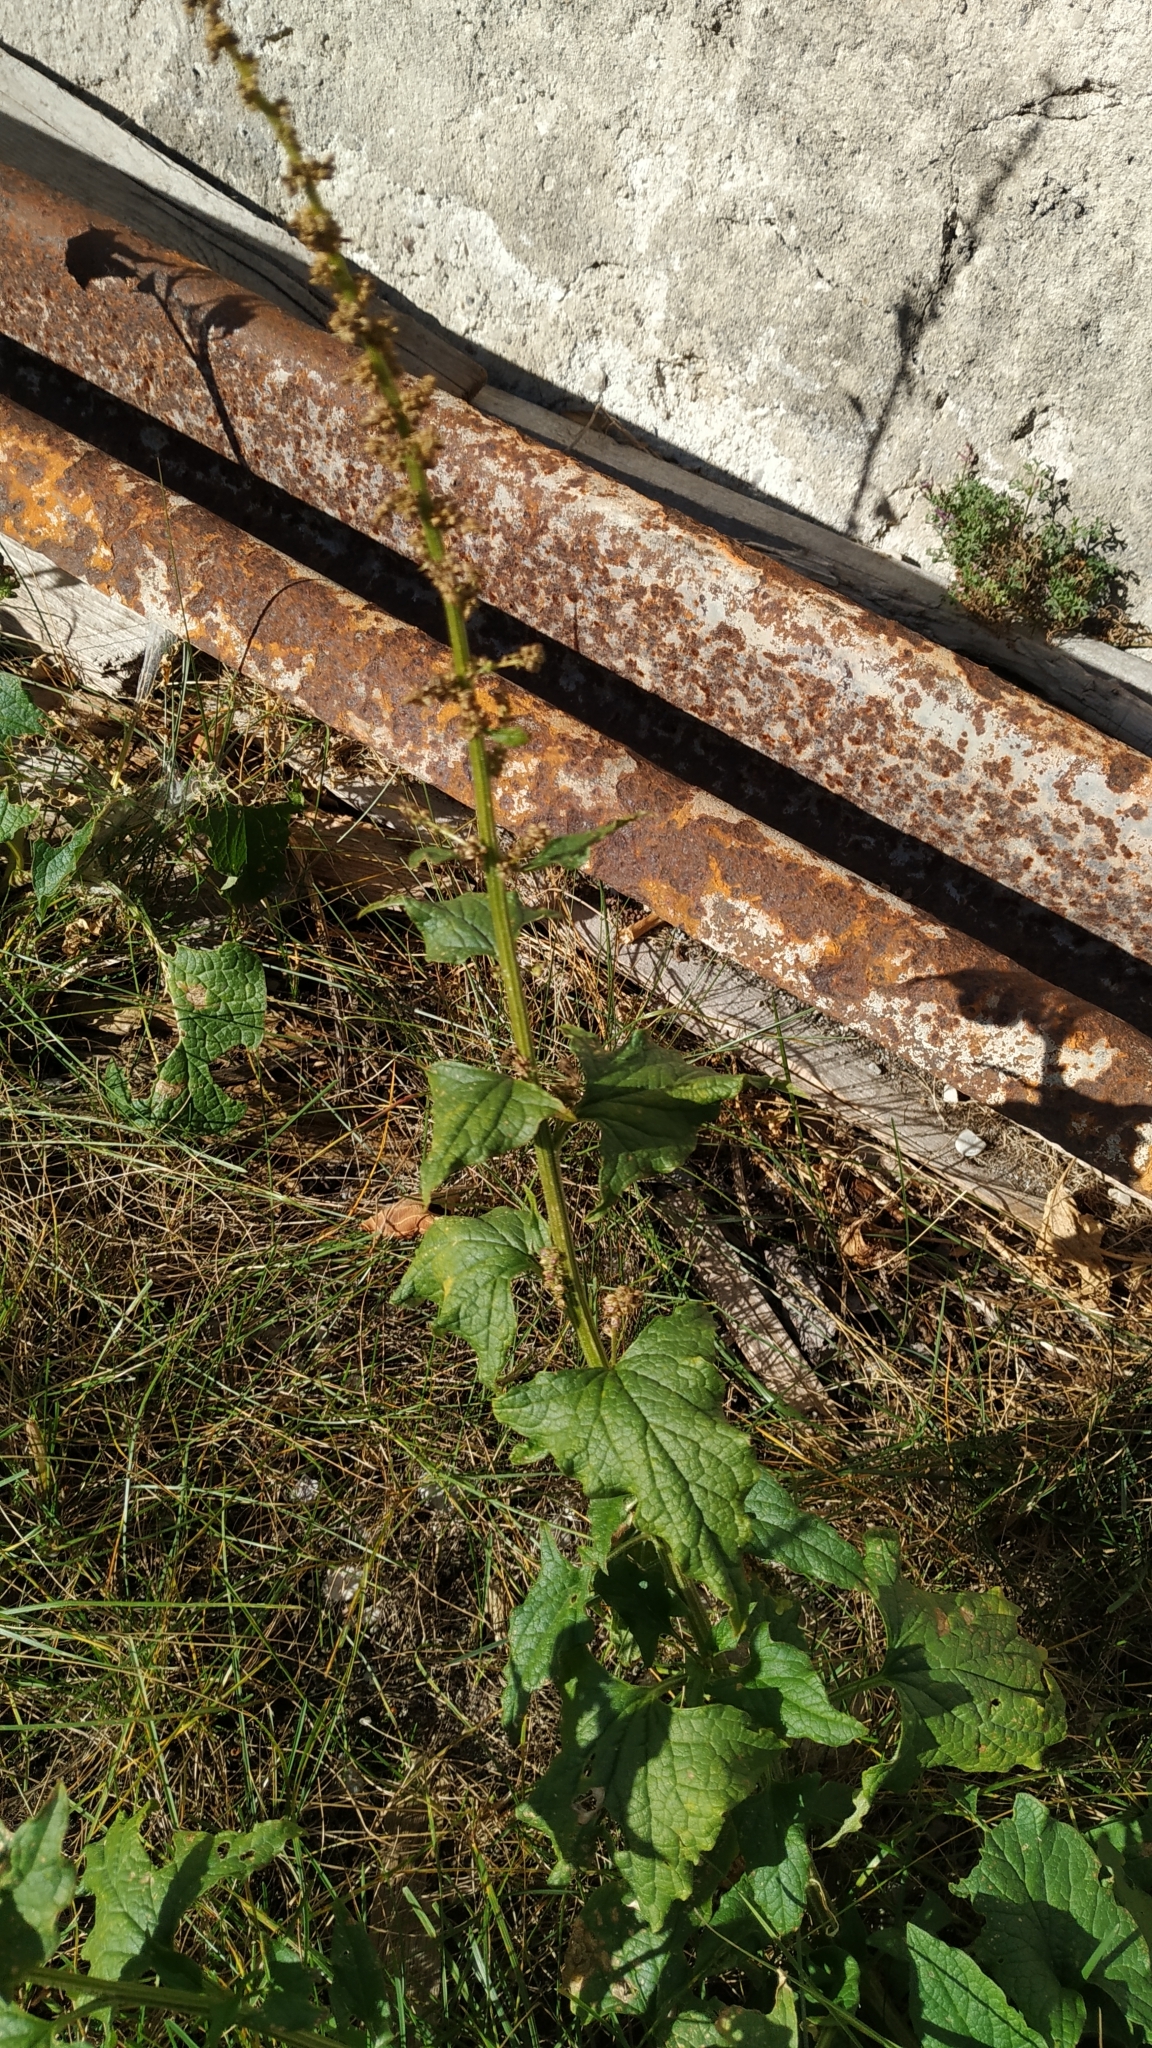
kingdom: Plantae
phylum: Tracheophyta
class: Magnoliopsida
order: Caryophyllales
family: Amaranthaceae
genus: Blitum
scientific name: Blitum bonus-henricus
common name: Good king henry
